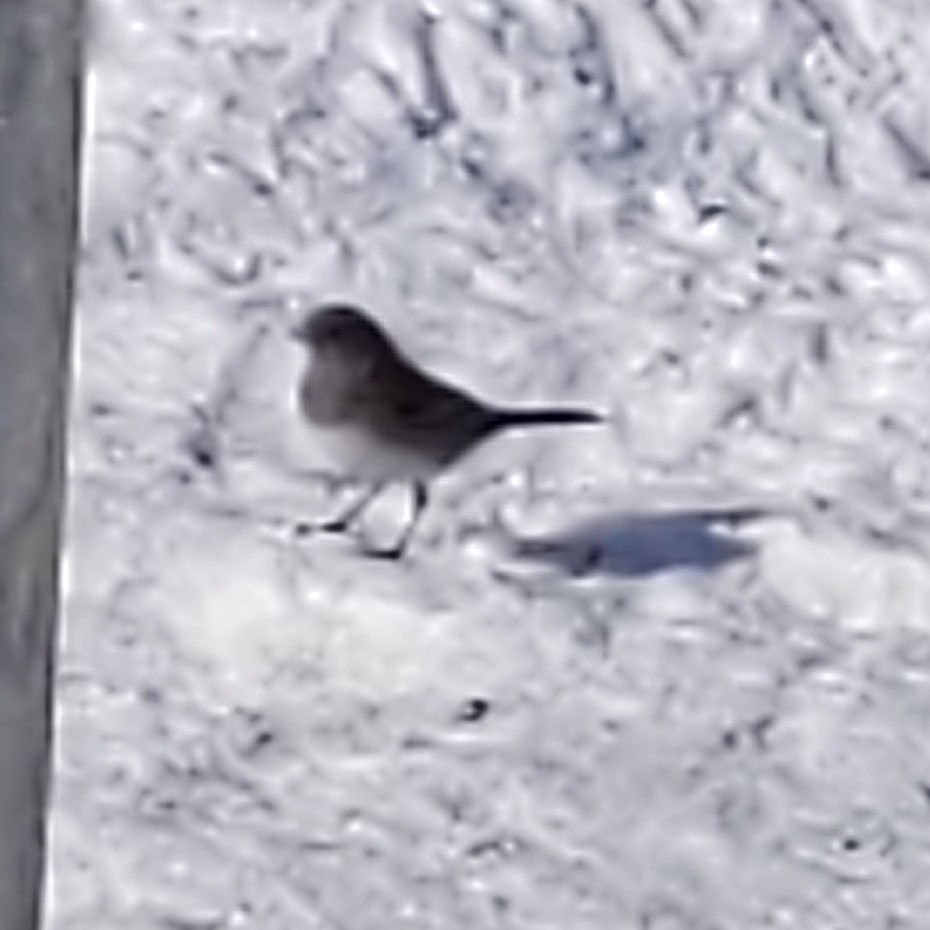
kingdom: Animalia
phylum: Chordata
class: Aves
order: Passeriformes
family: Passerellidae
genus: Junco
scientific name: Junco hyemalis
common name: Dark-eyed junco
